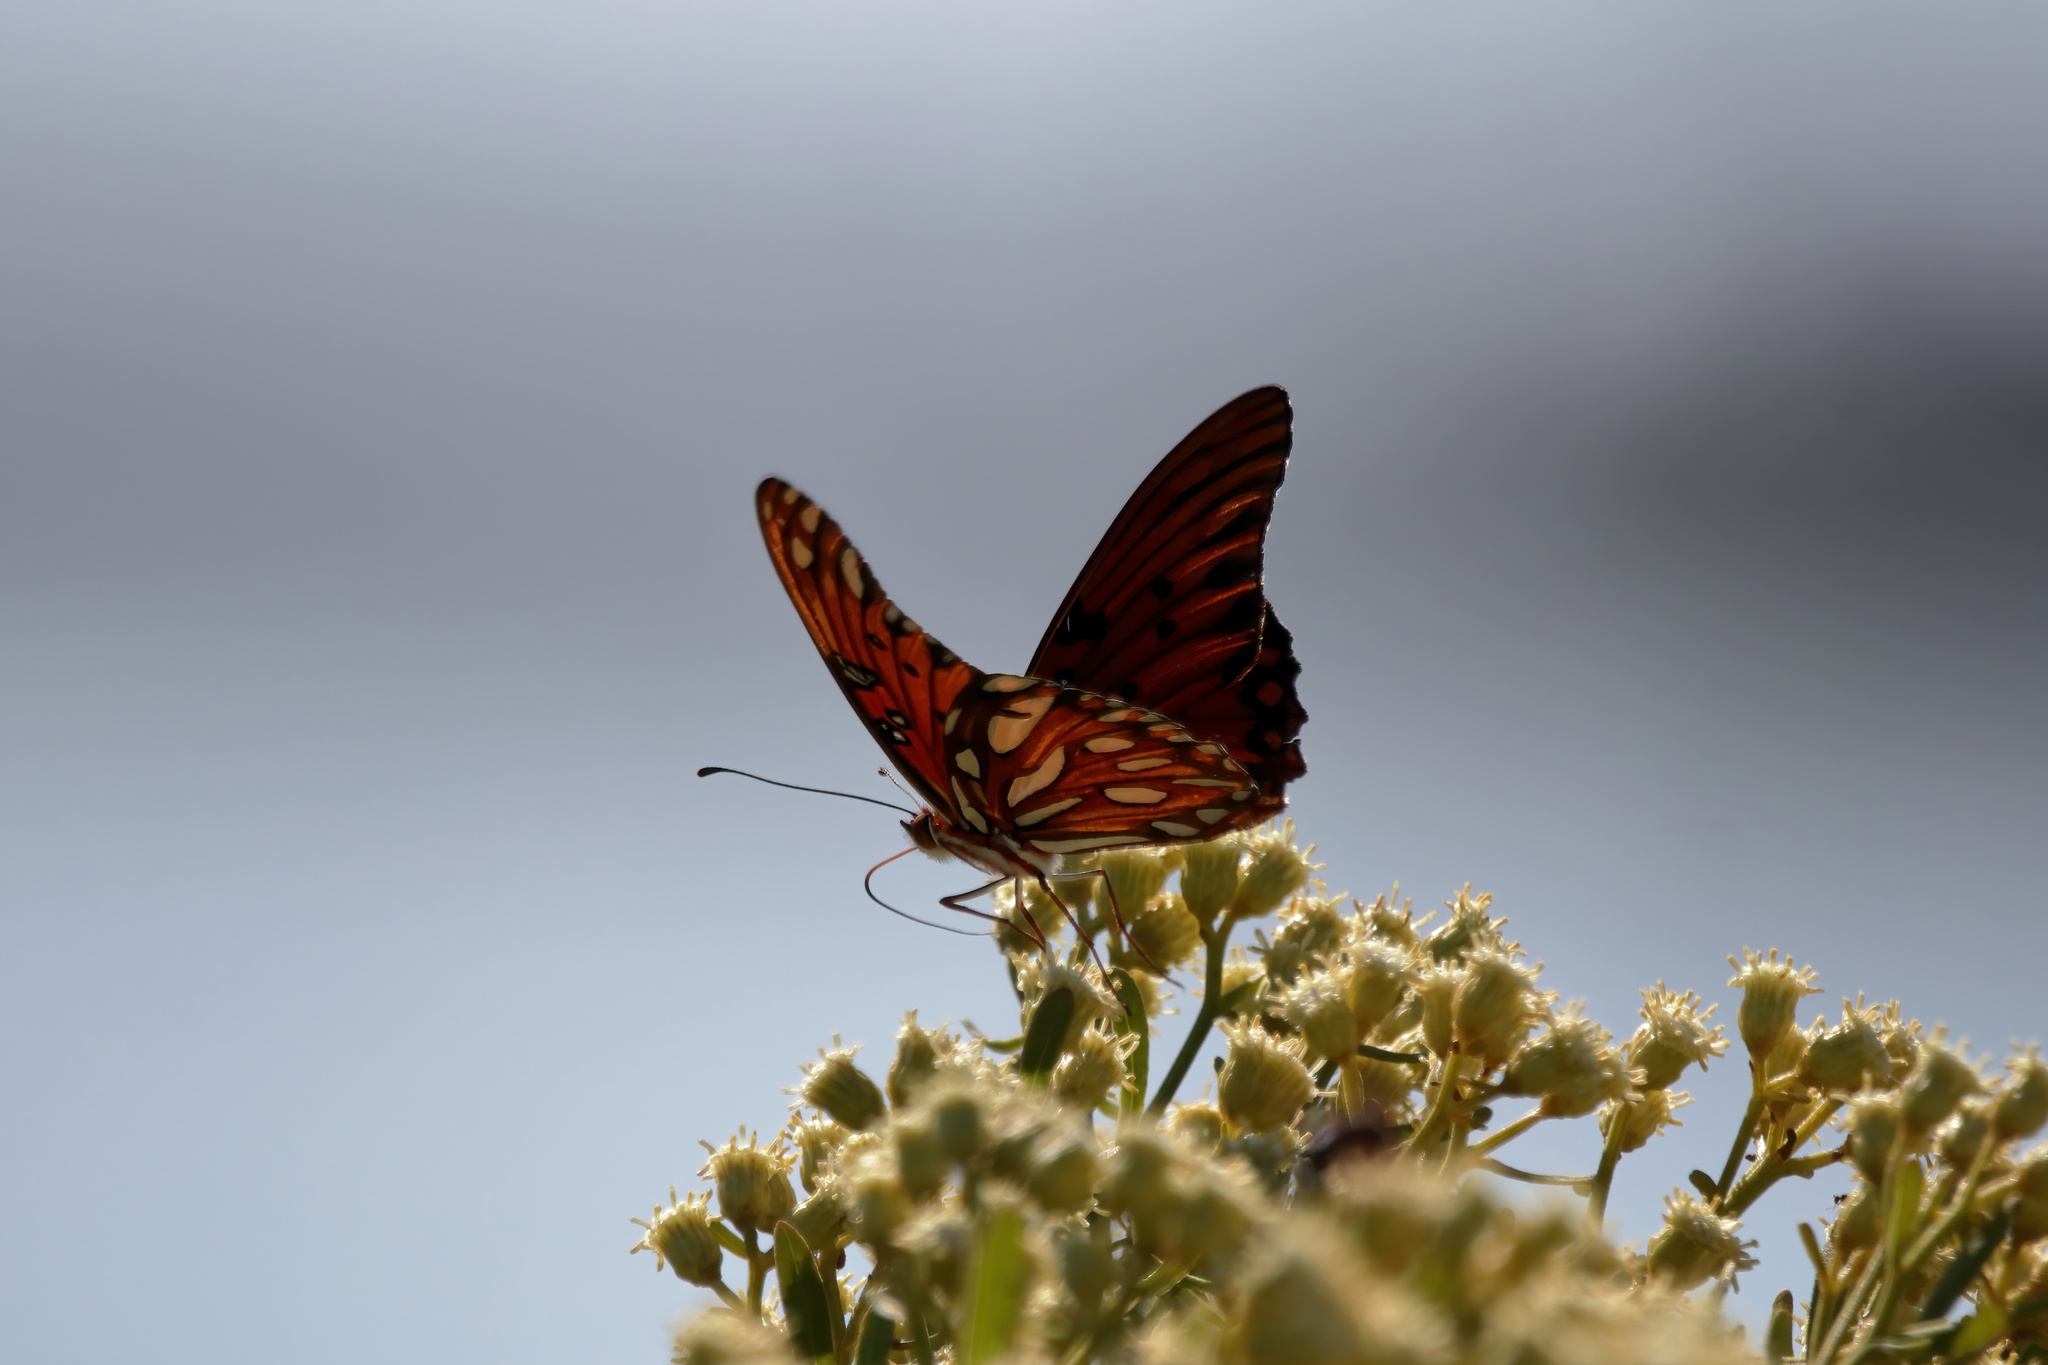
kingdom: Animalia
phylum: Arthropoda
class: Insecta
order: Lepidoptera
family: Nymphalidae
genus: Dione
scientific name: Dione vanillae
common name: Gulf fritillary
